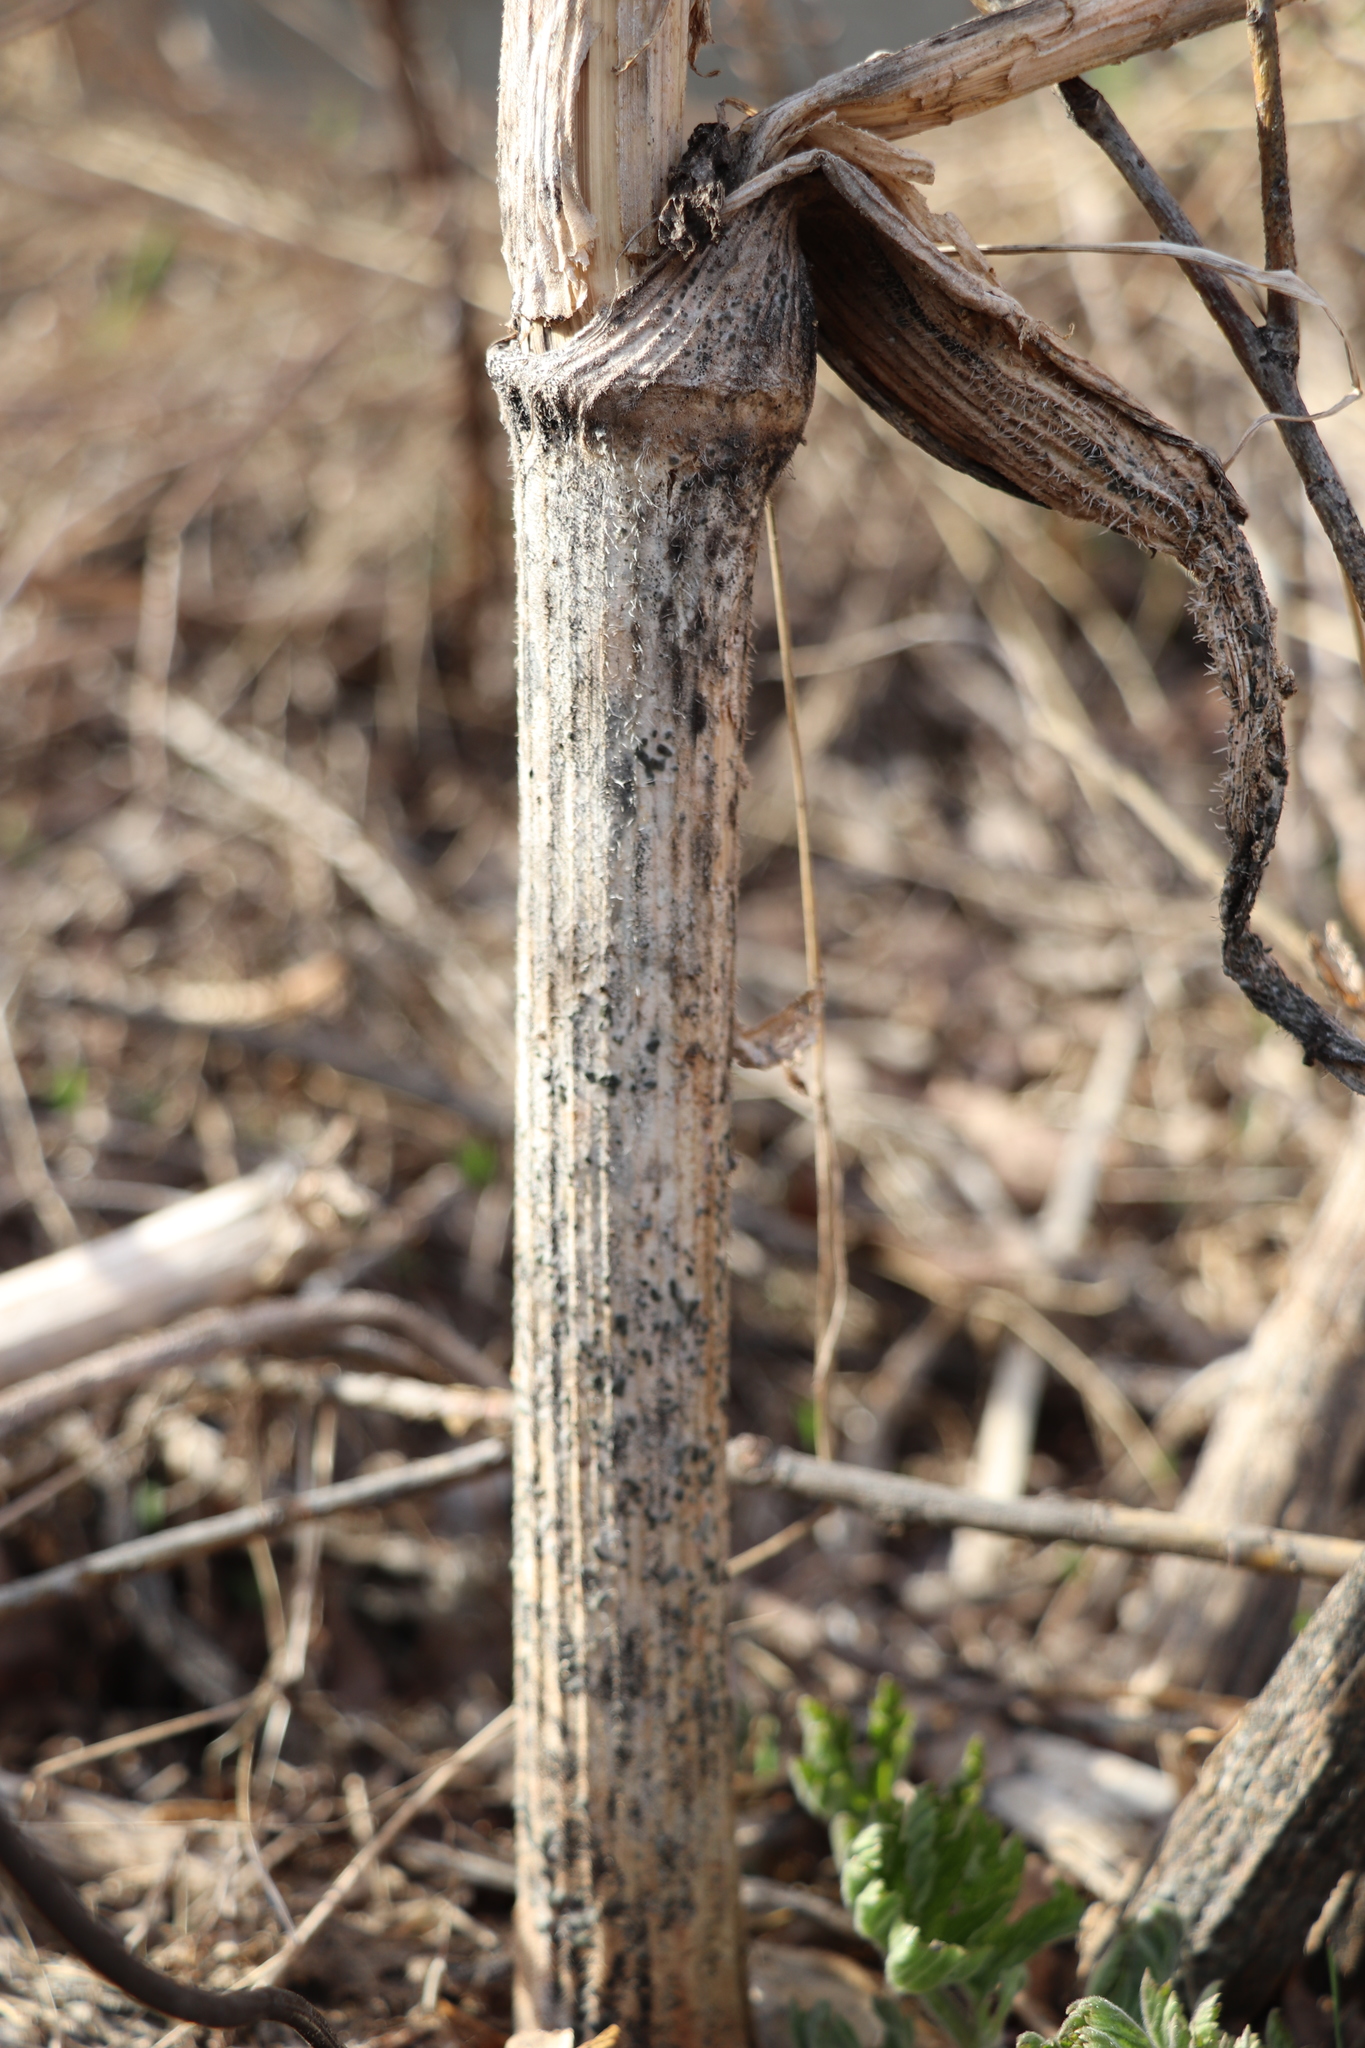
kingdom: Plantae
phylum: Tracheophyta
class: Magnoliopsida
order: Apiales
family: Apiaceae
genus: Heracleum
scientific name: Heracleum sosnowskyi
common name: Sosnowsky's hogweed
